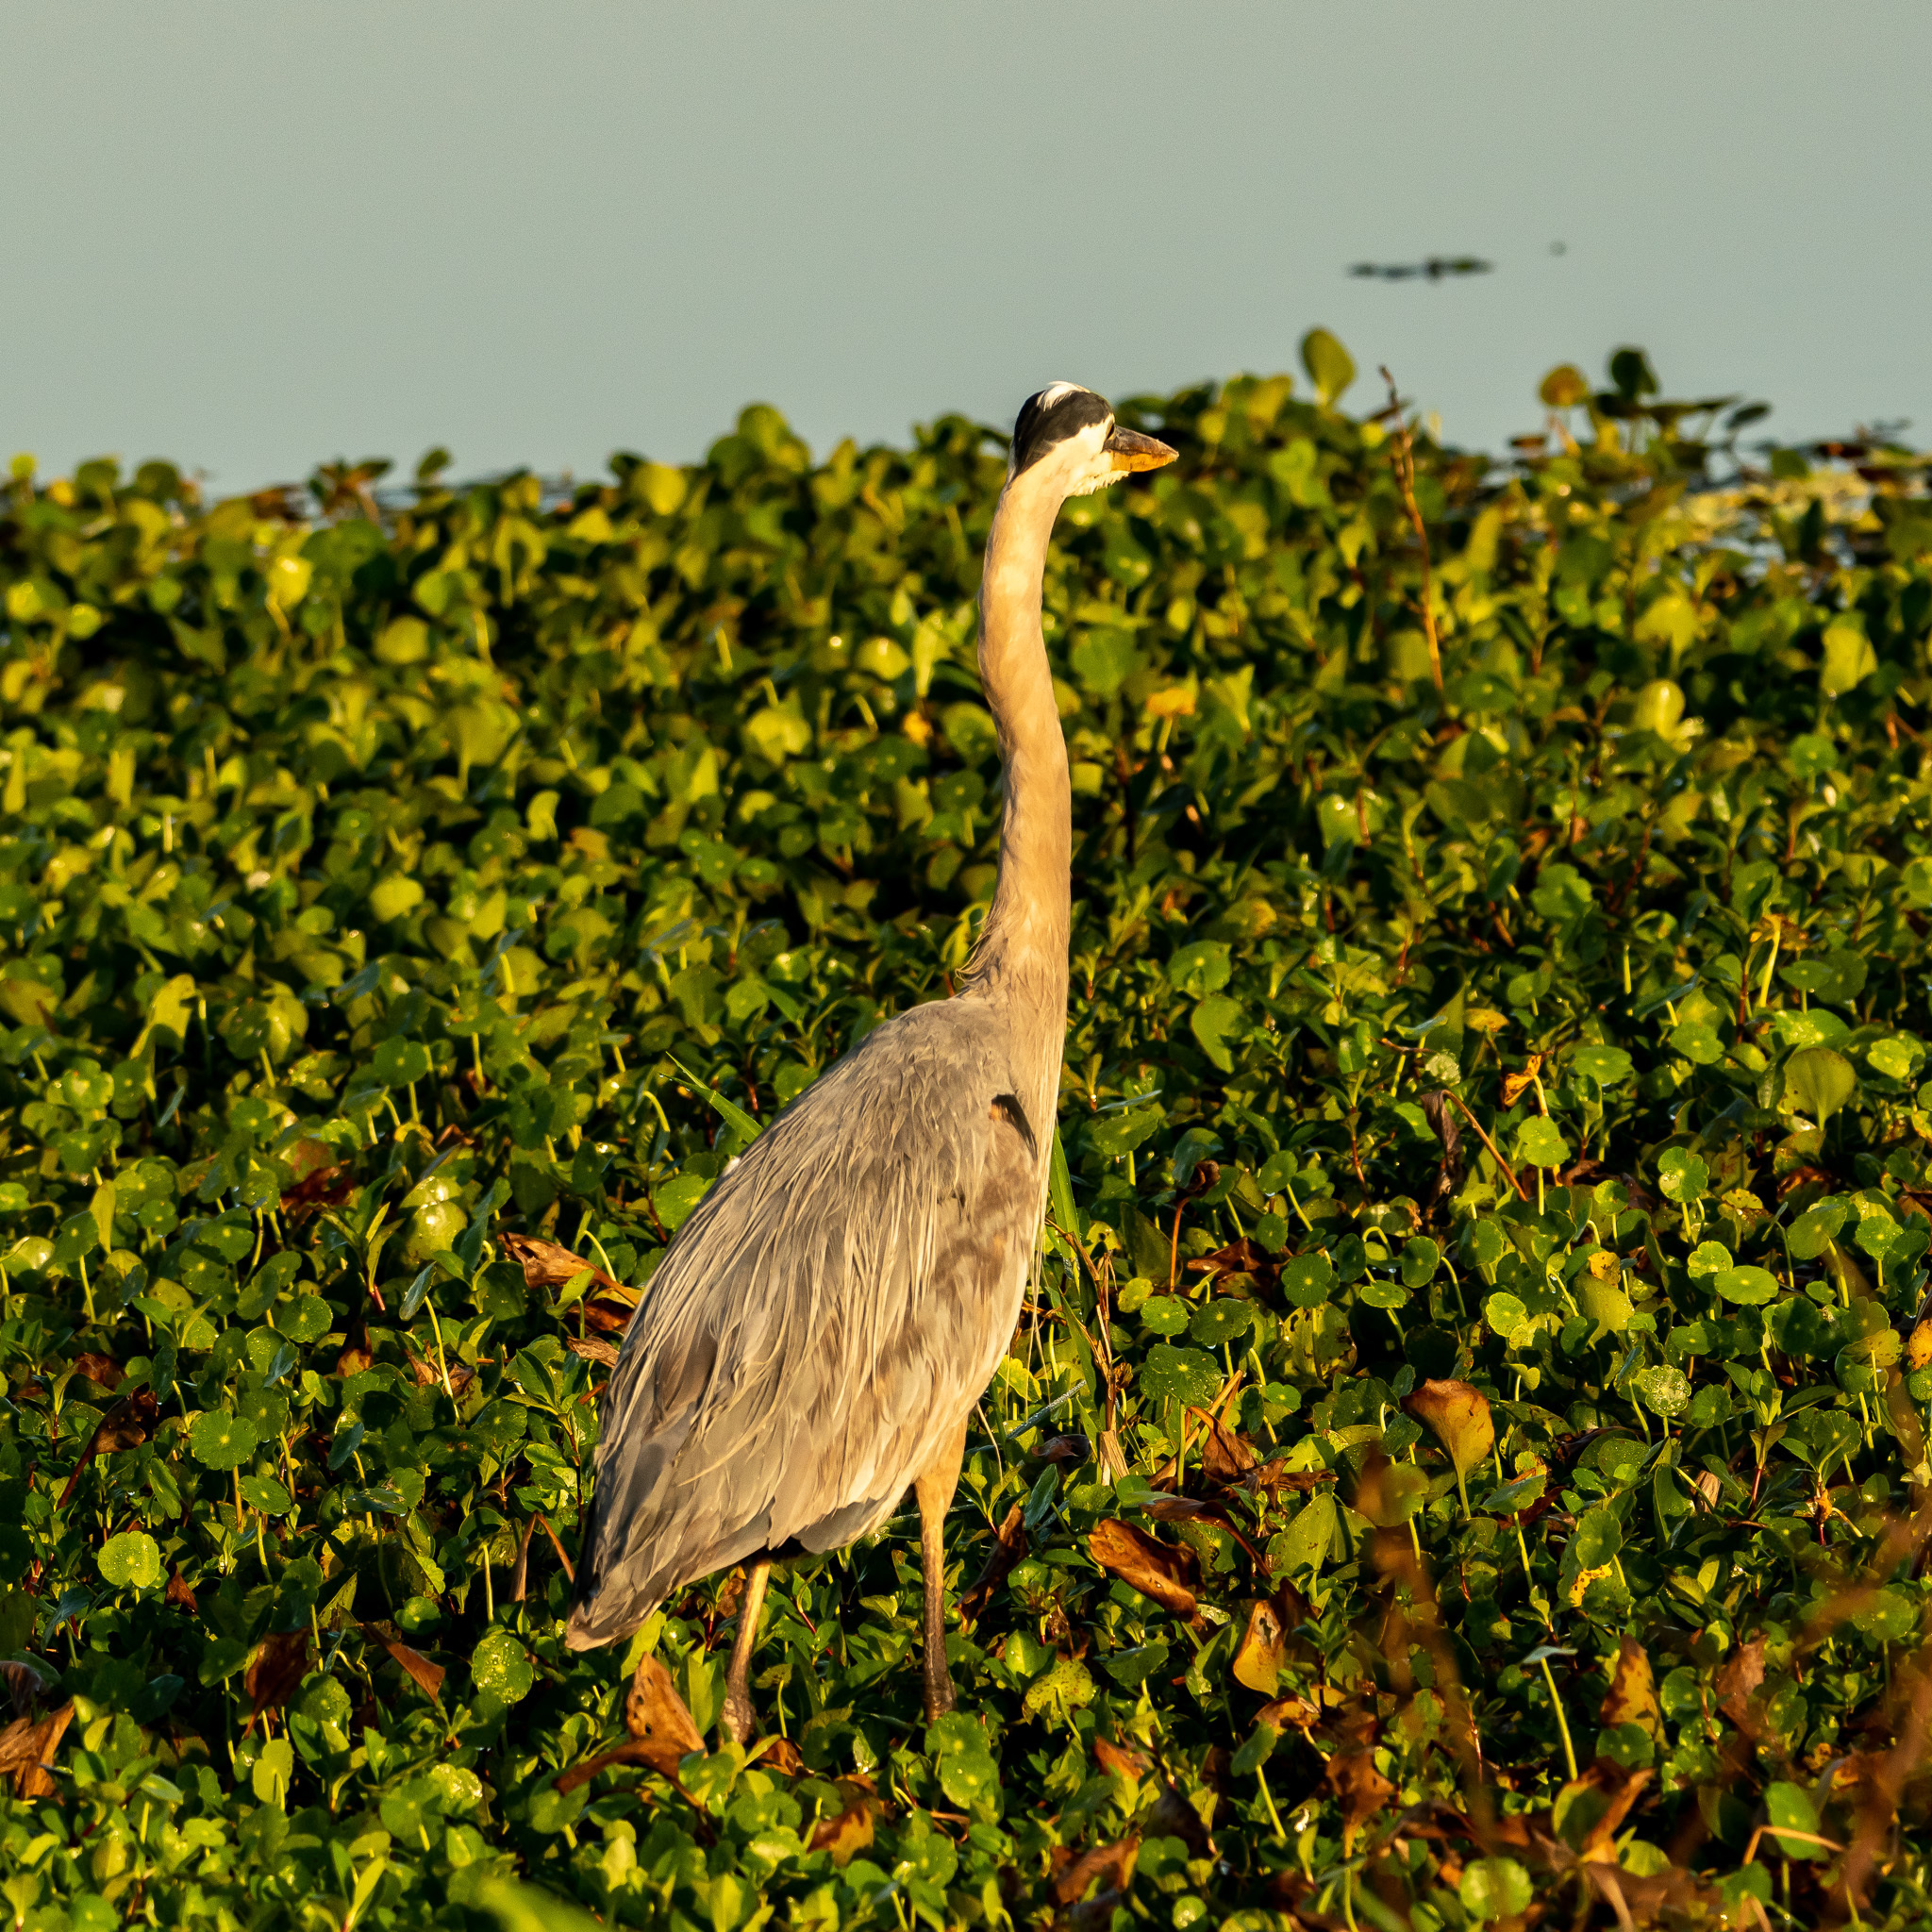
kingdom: Animalia
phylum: Chordata
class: Aves
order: Pelecaniformes
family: Ardeidae
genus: Ardea
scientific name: Ardea herodias
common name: Great blue heron
